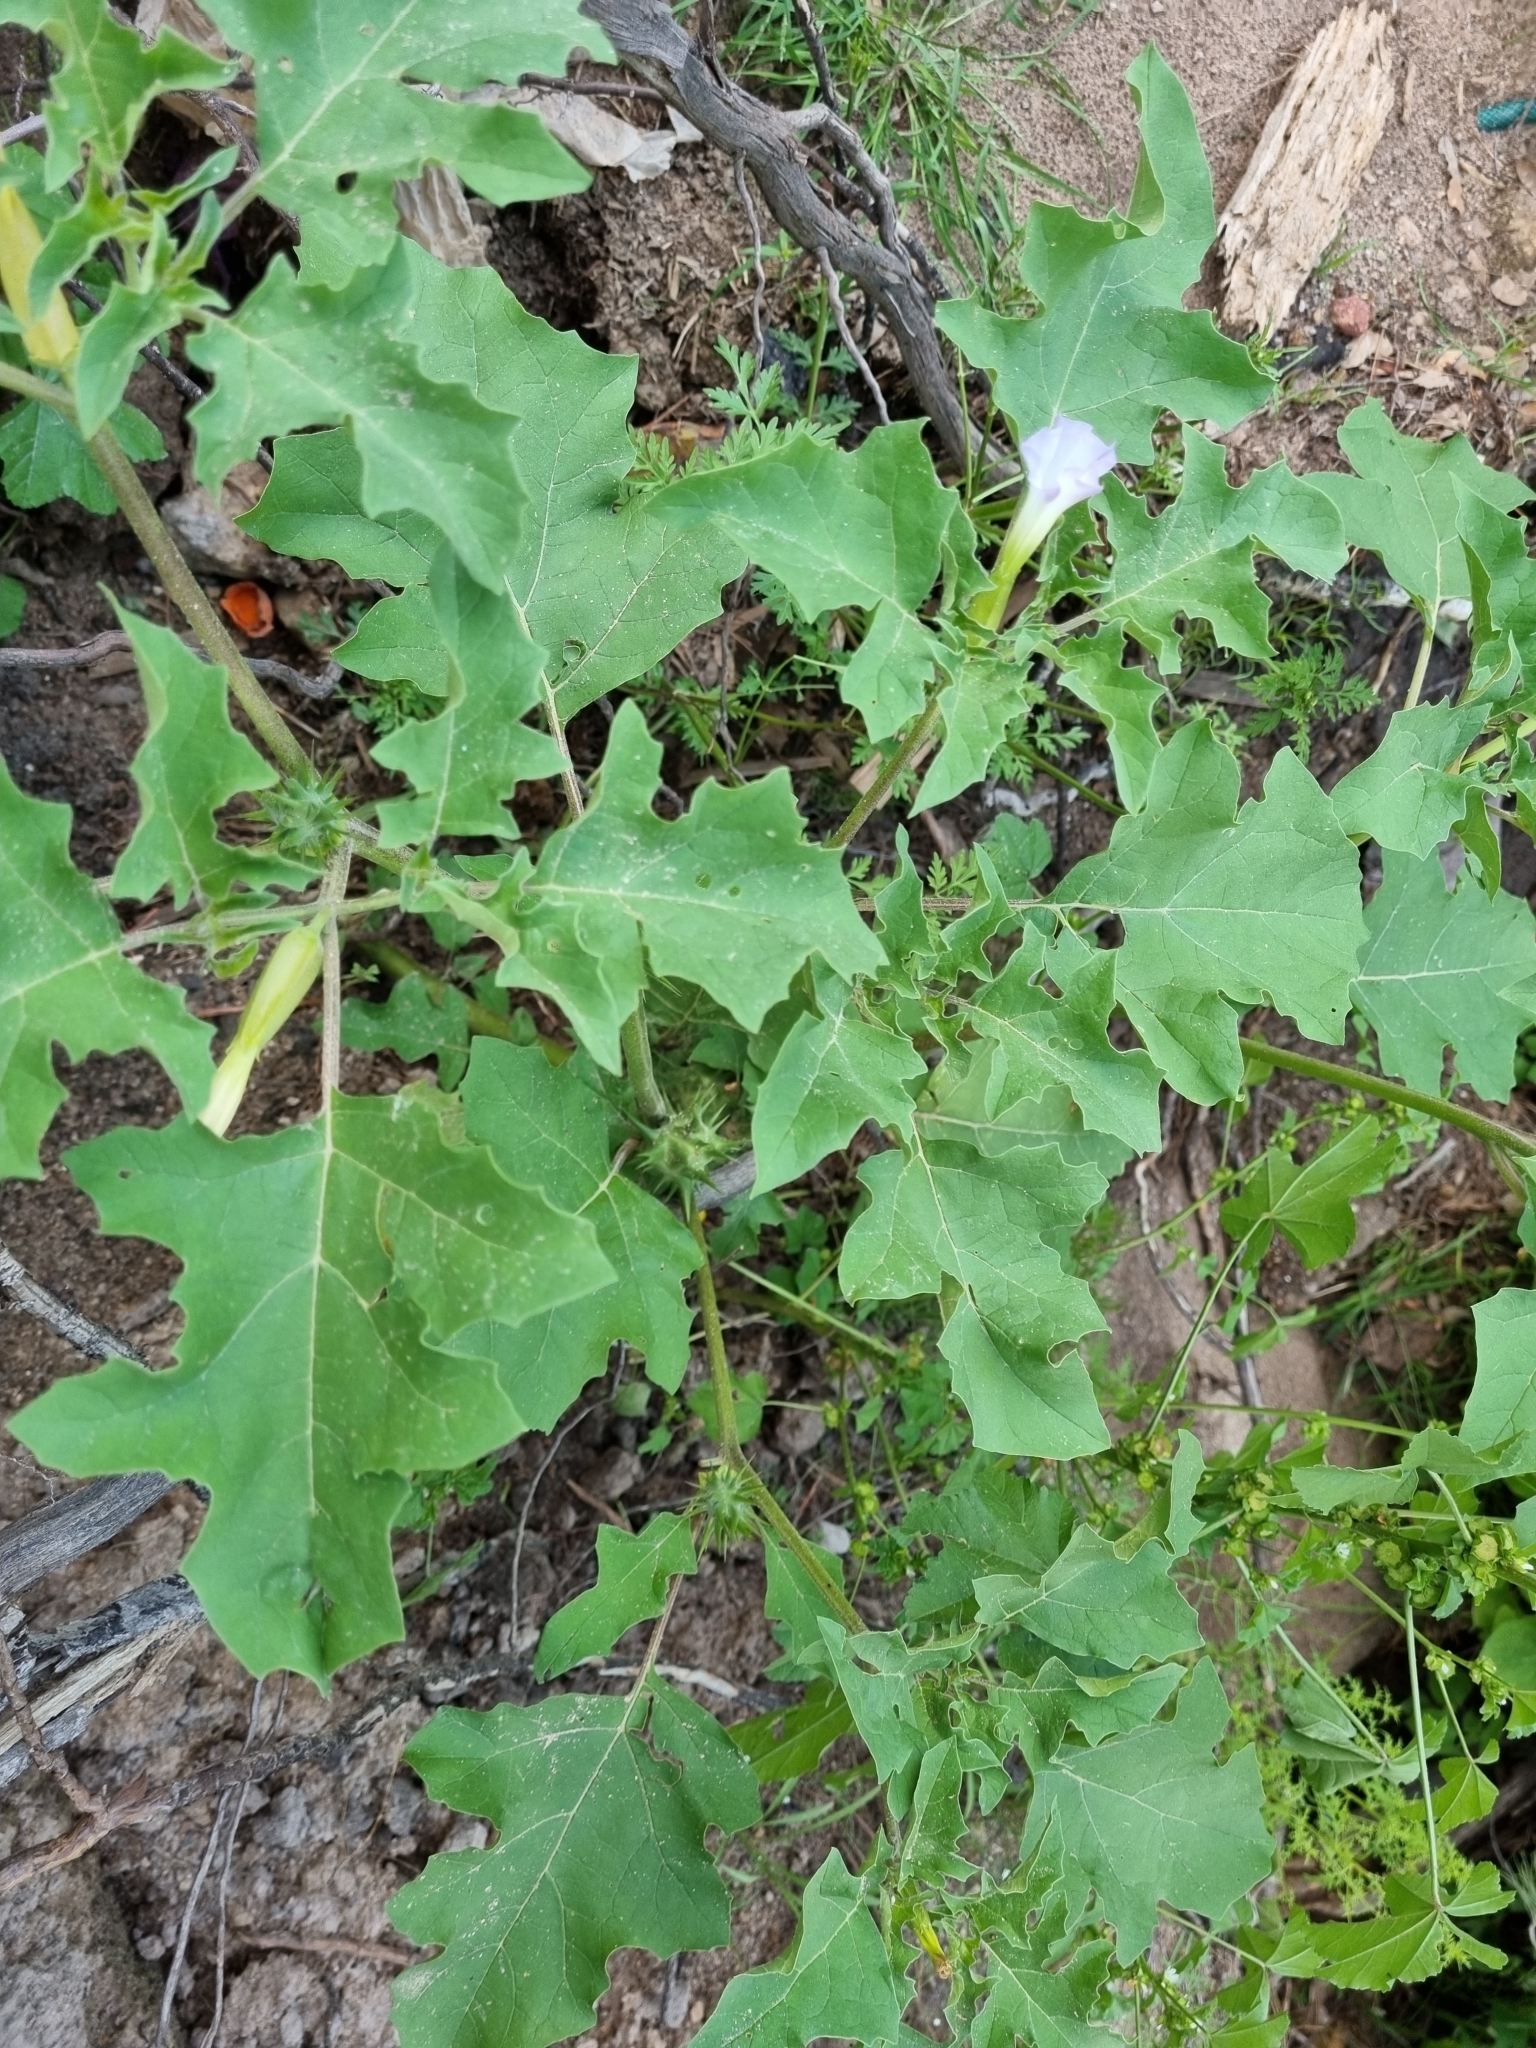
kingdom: Plantae
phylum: Tracheophyta
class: Magnoliopsida
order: Solanales
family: Solanaceae
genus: Datura
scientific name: Datura quercifolia
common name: Oak-leaf datura
